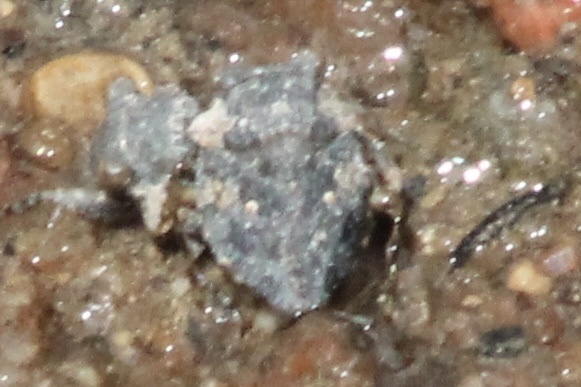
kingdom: Animalia
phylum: Arthropoda
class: Insecta
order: Hemiptera
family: Gelastocoridae
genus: Gelastocoris
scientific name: Gelastocoris oculatus
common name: Toad bug
